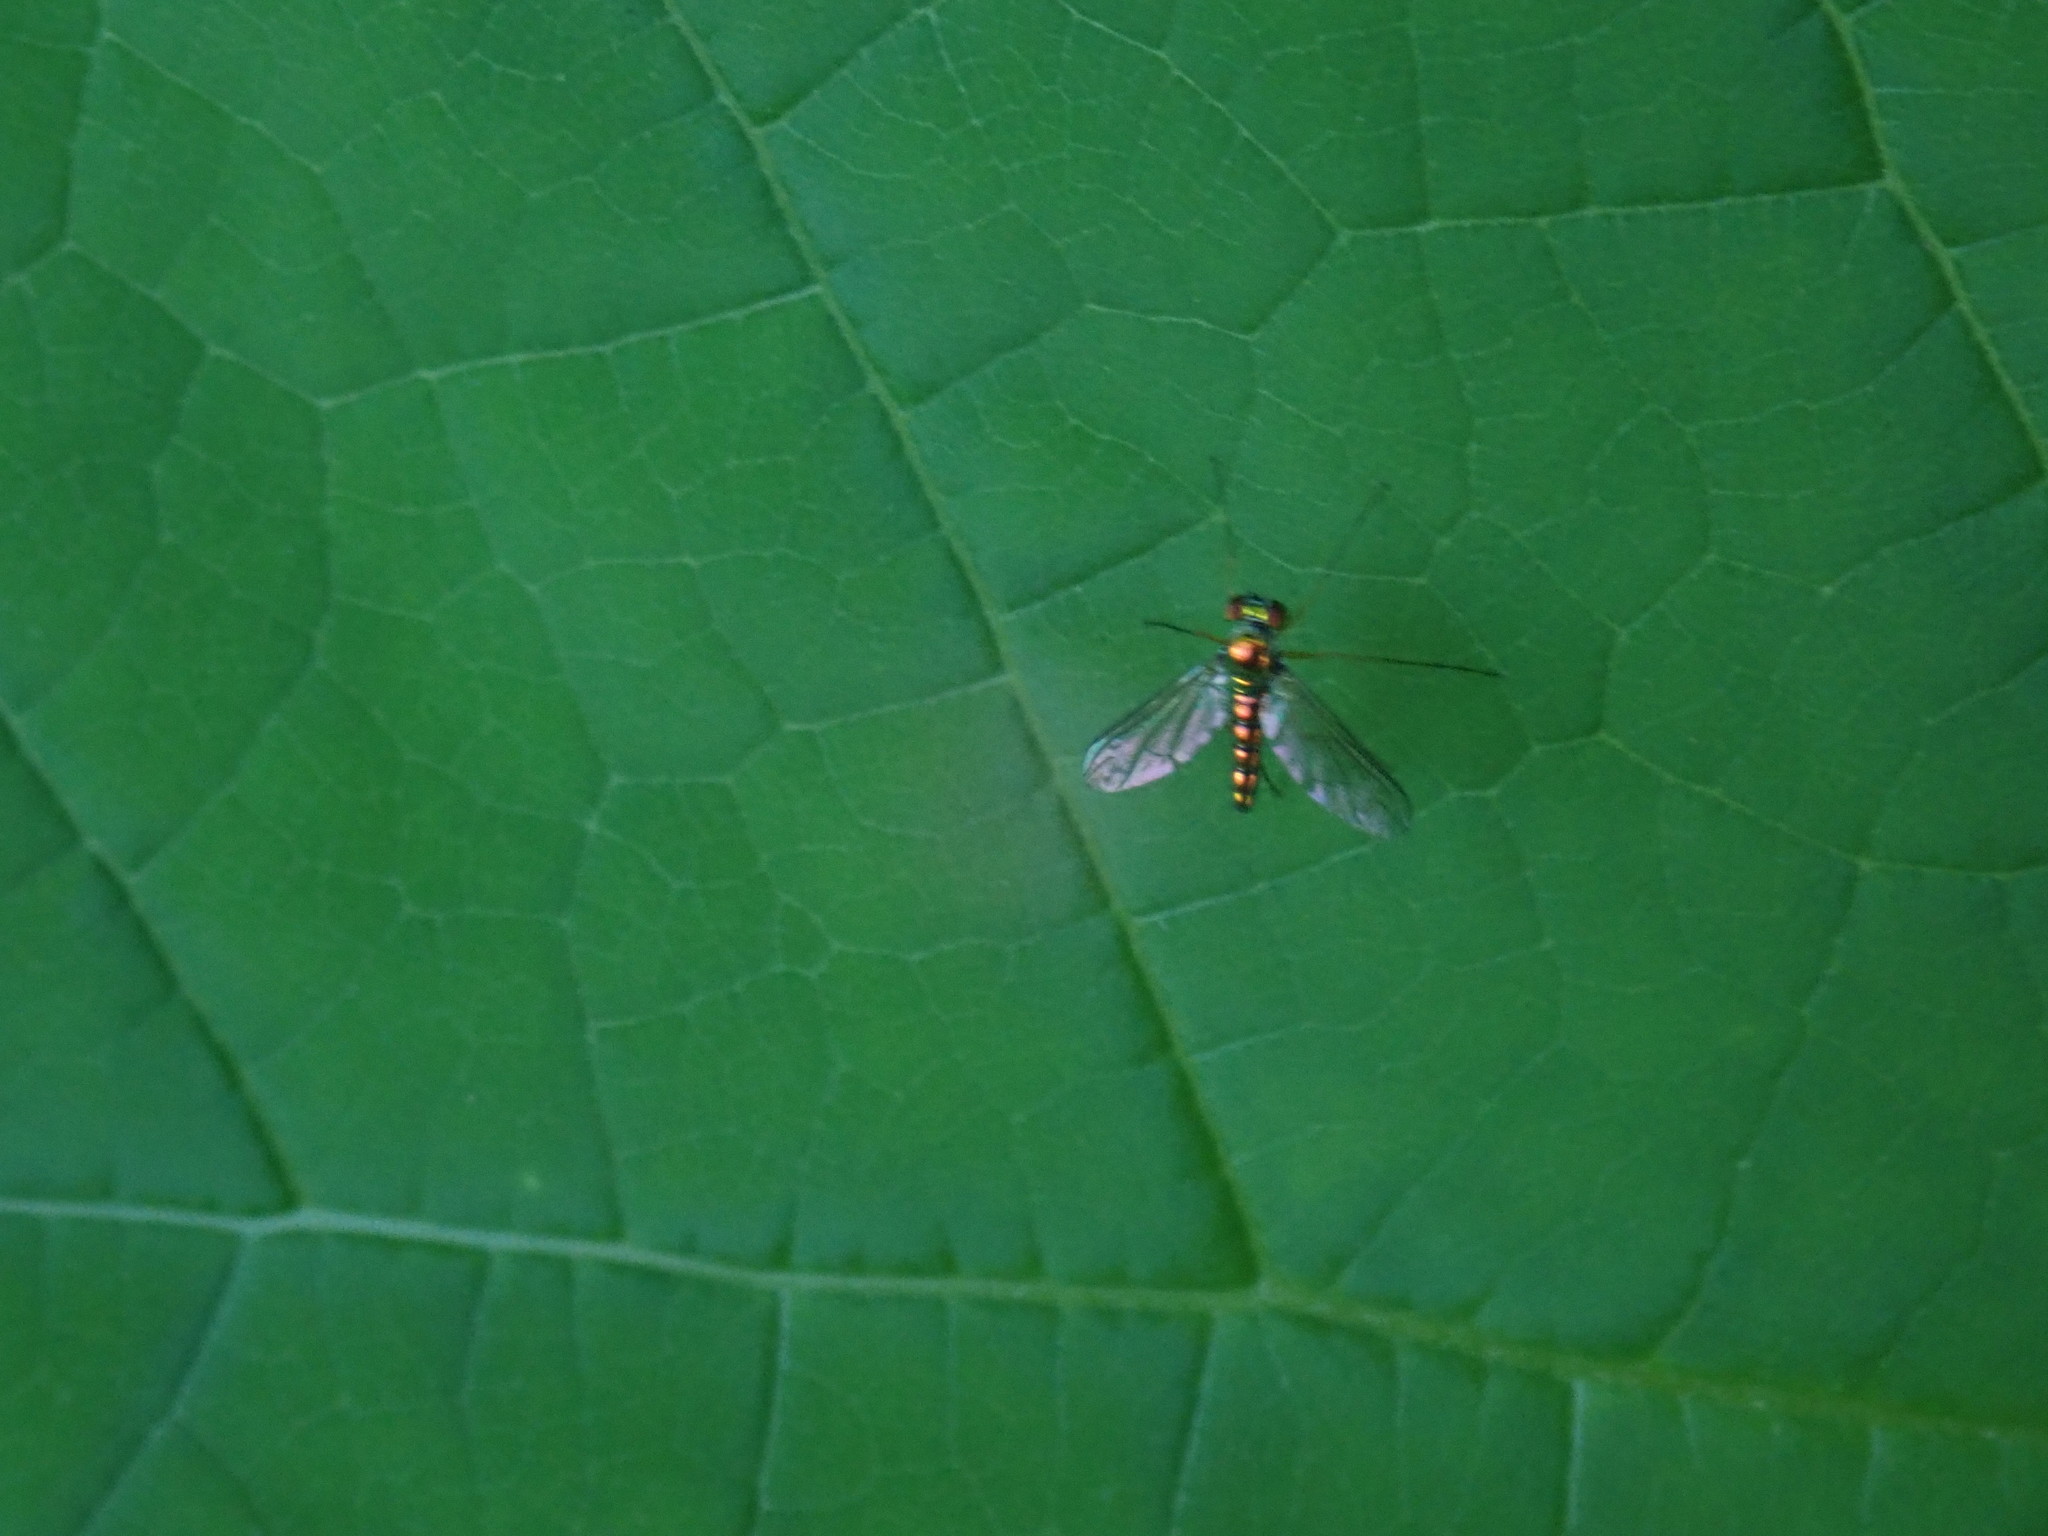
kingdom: Animalia
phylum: Arthropoda
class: Insecta
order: Diptera
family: Dolichopodidae
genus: Amblypsilopus
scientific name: Amblypsilopus scintillans
